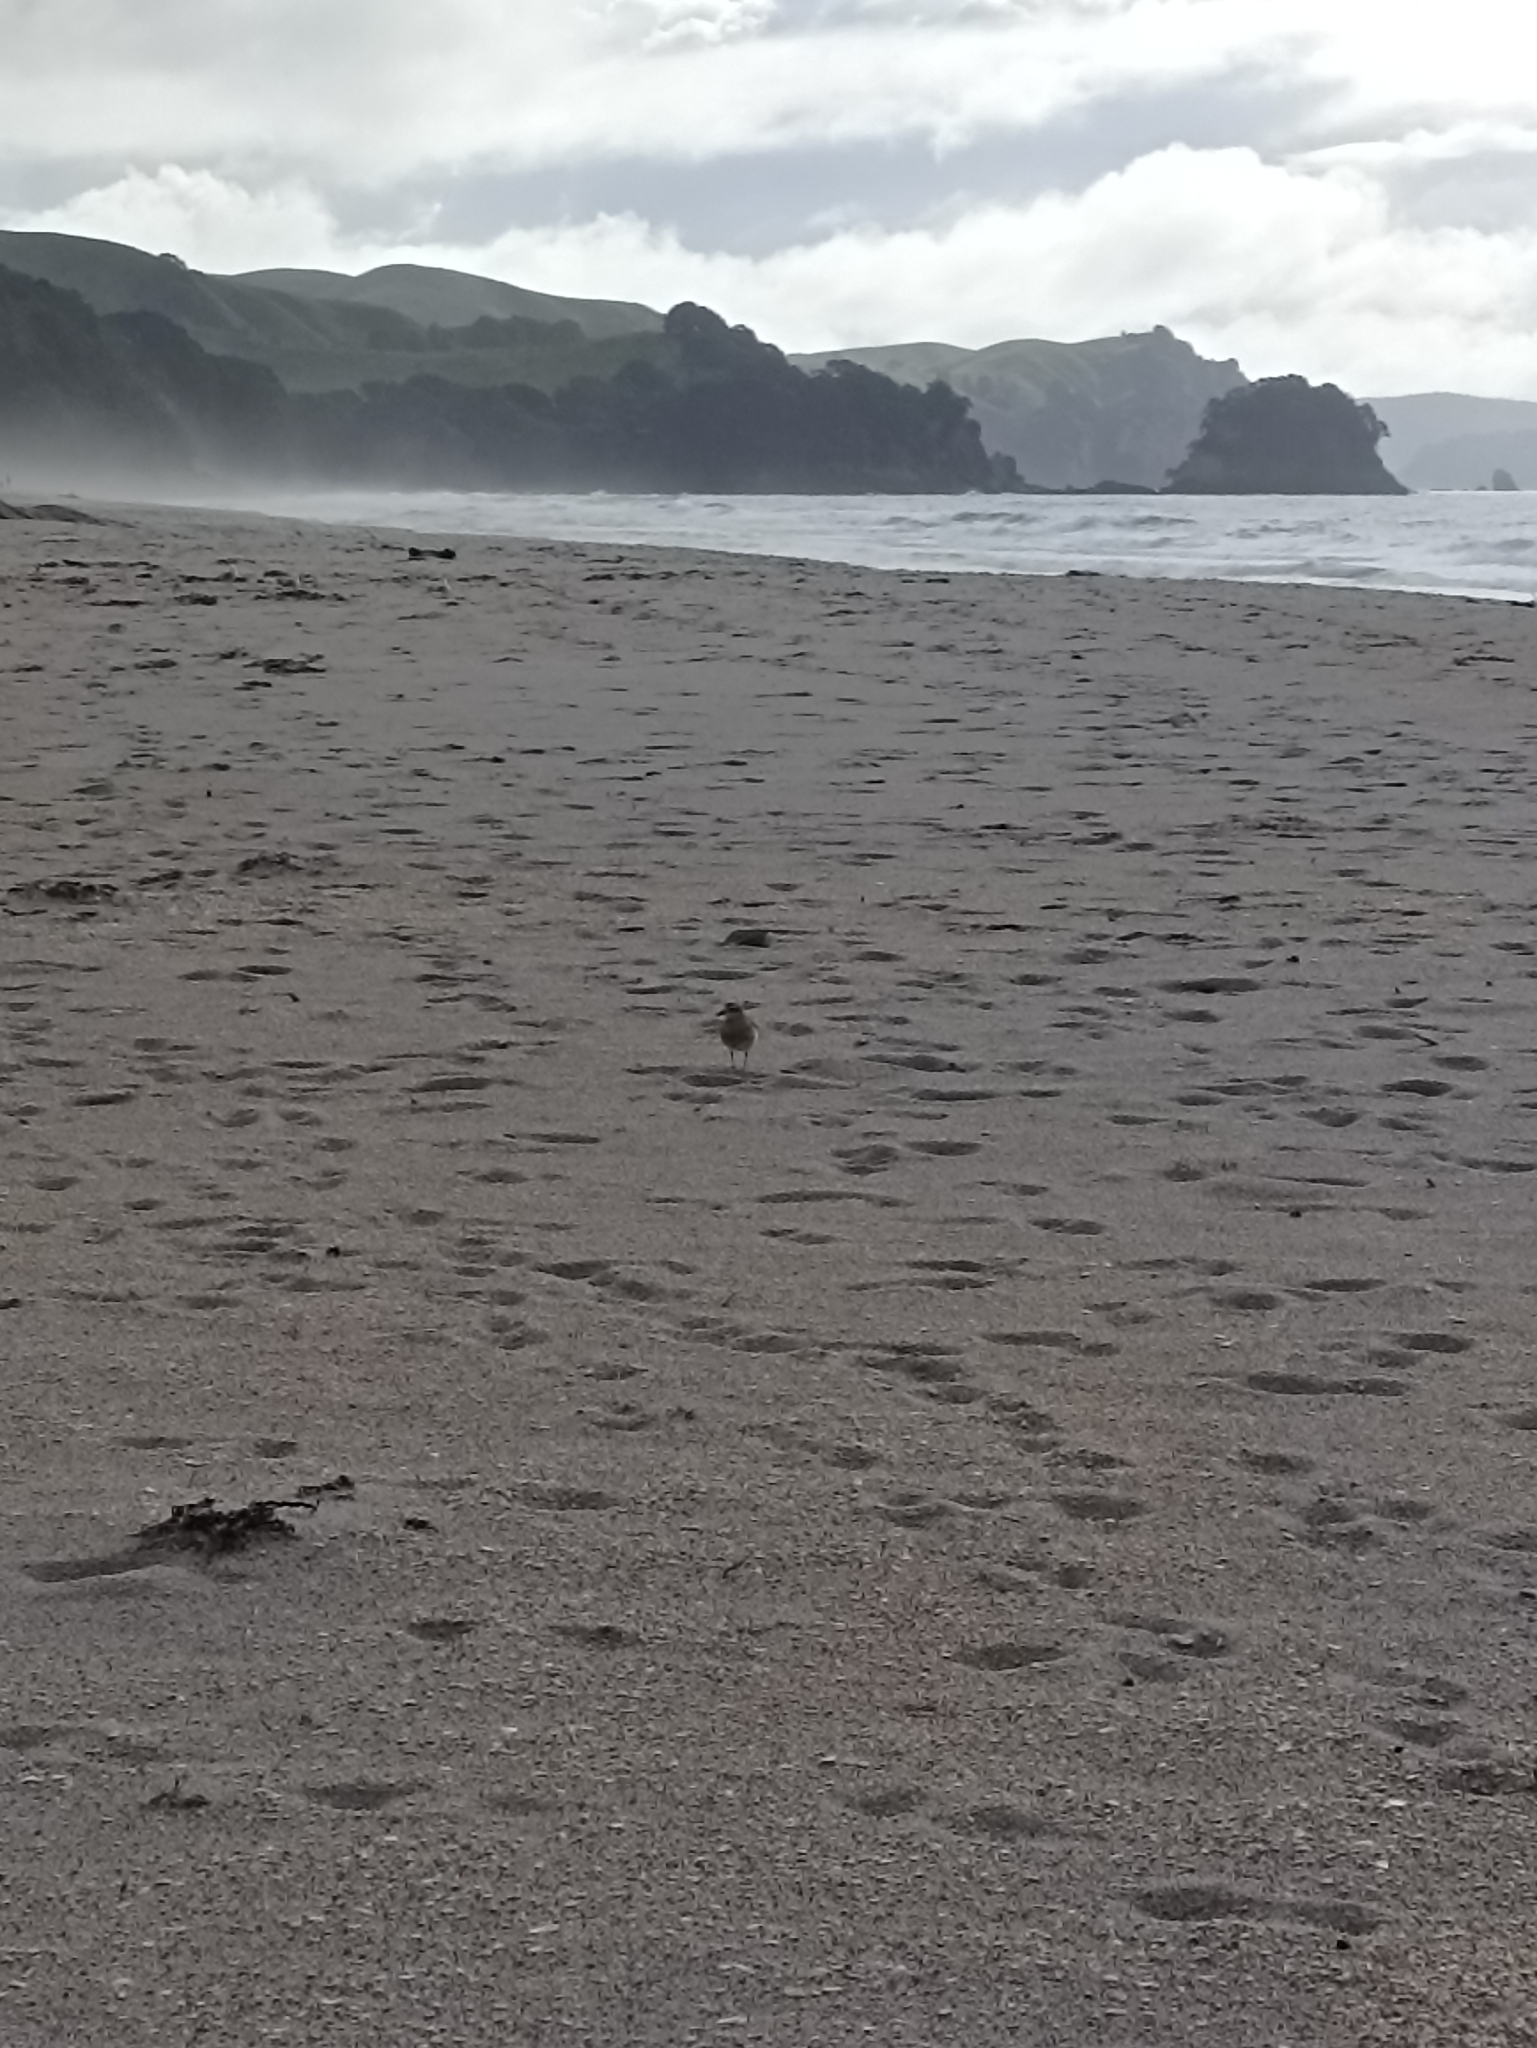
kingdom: Animalia
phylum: Chordata
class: Aves
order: Charadriiformes
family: Charadriidae
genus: Anarhynchus
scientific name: Anarhynchus
